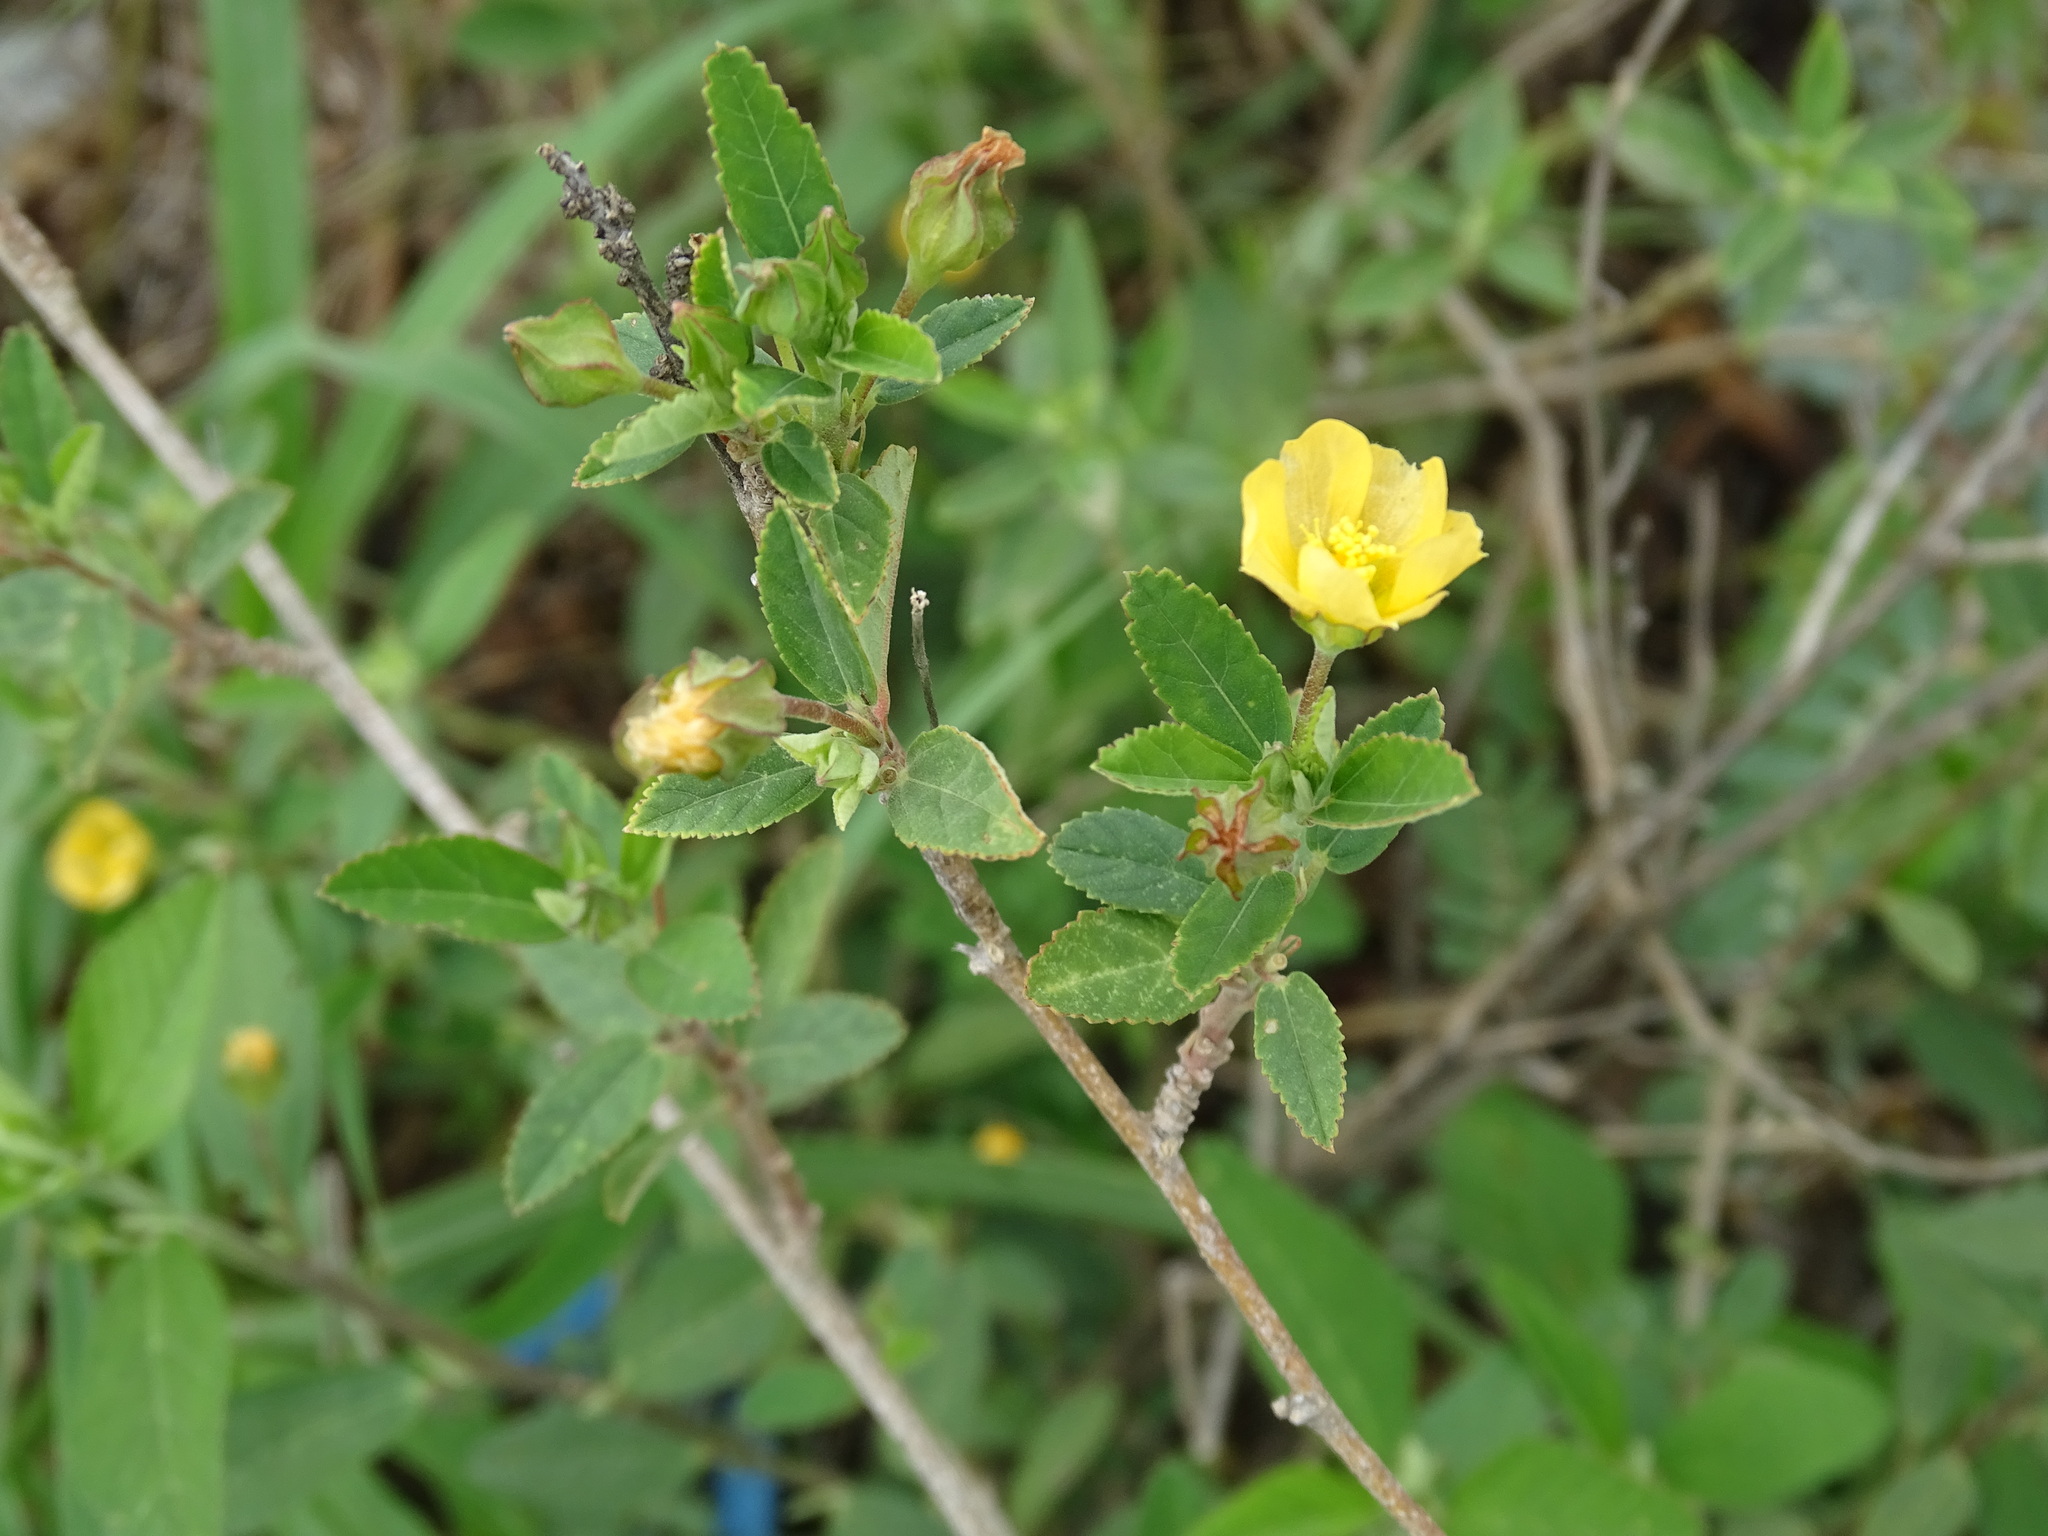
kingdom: Plantae
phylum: Tracheophyta
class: Magnoliopsida
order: Malvales
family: Malvaceae
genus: Sida
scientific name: Sida acuta
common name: Common wireweed
